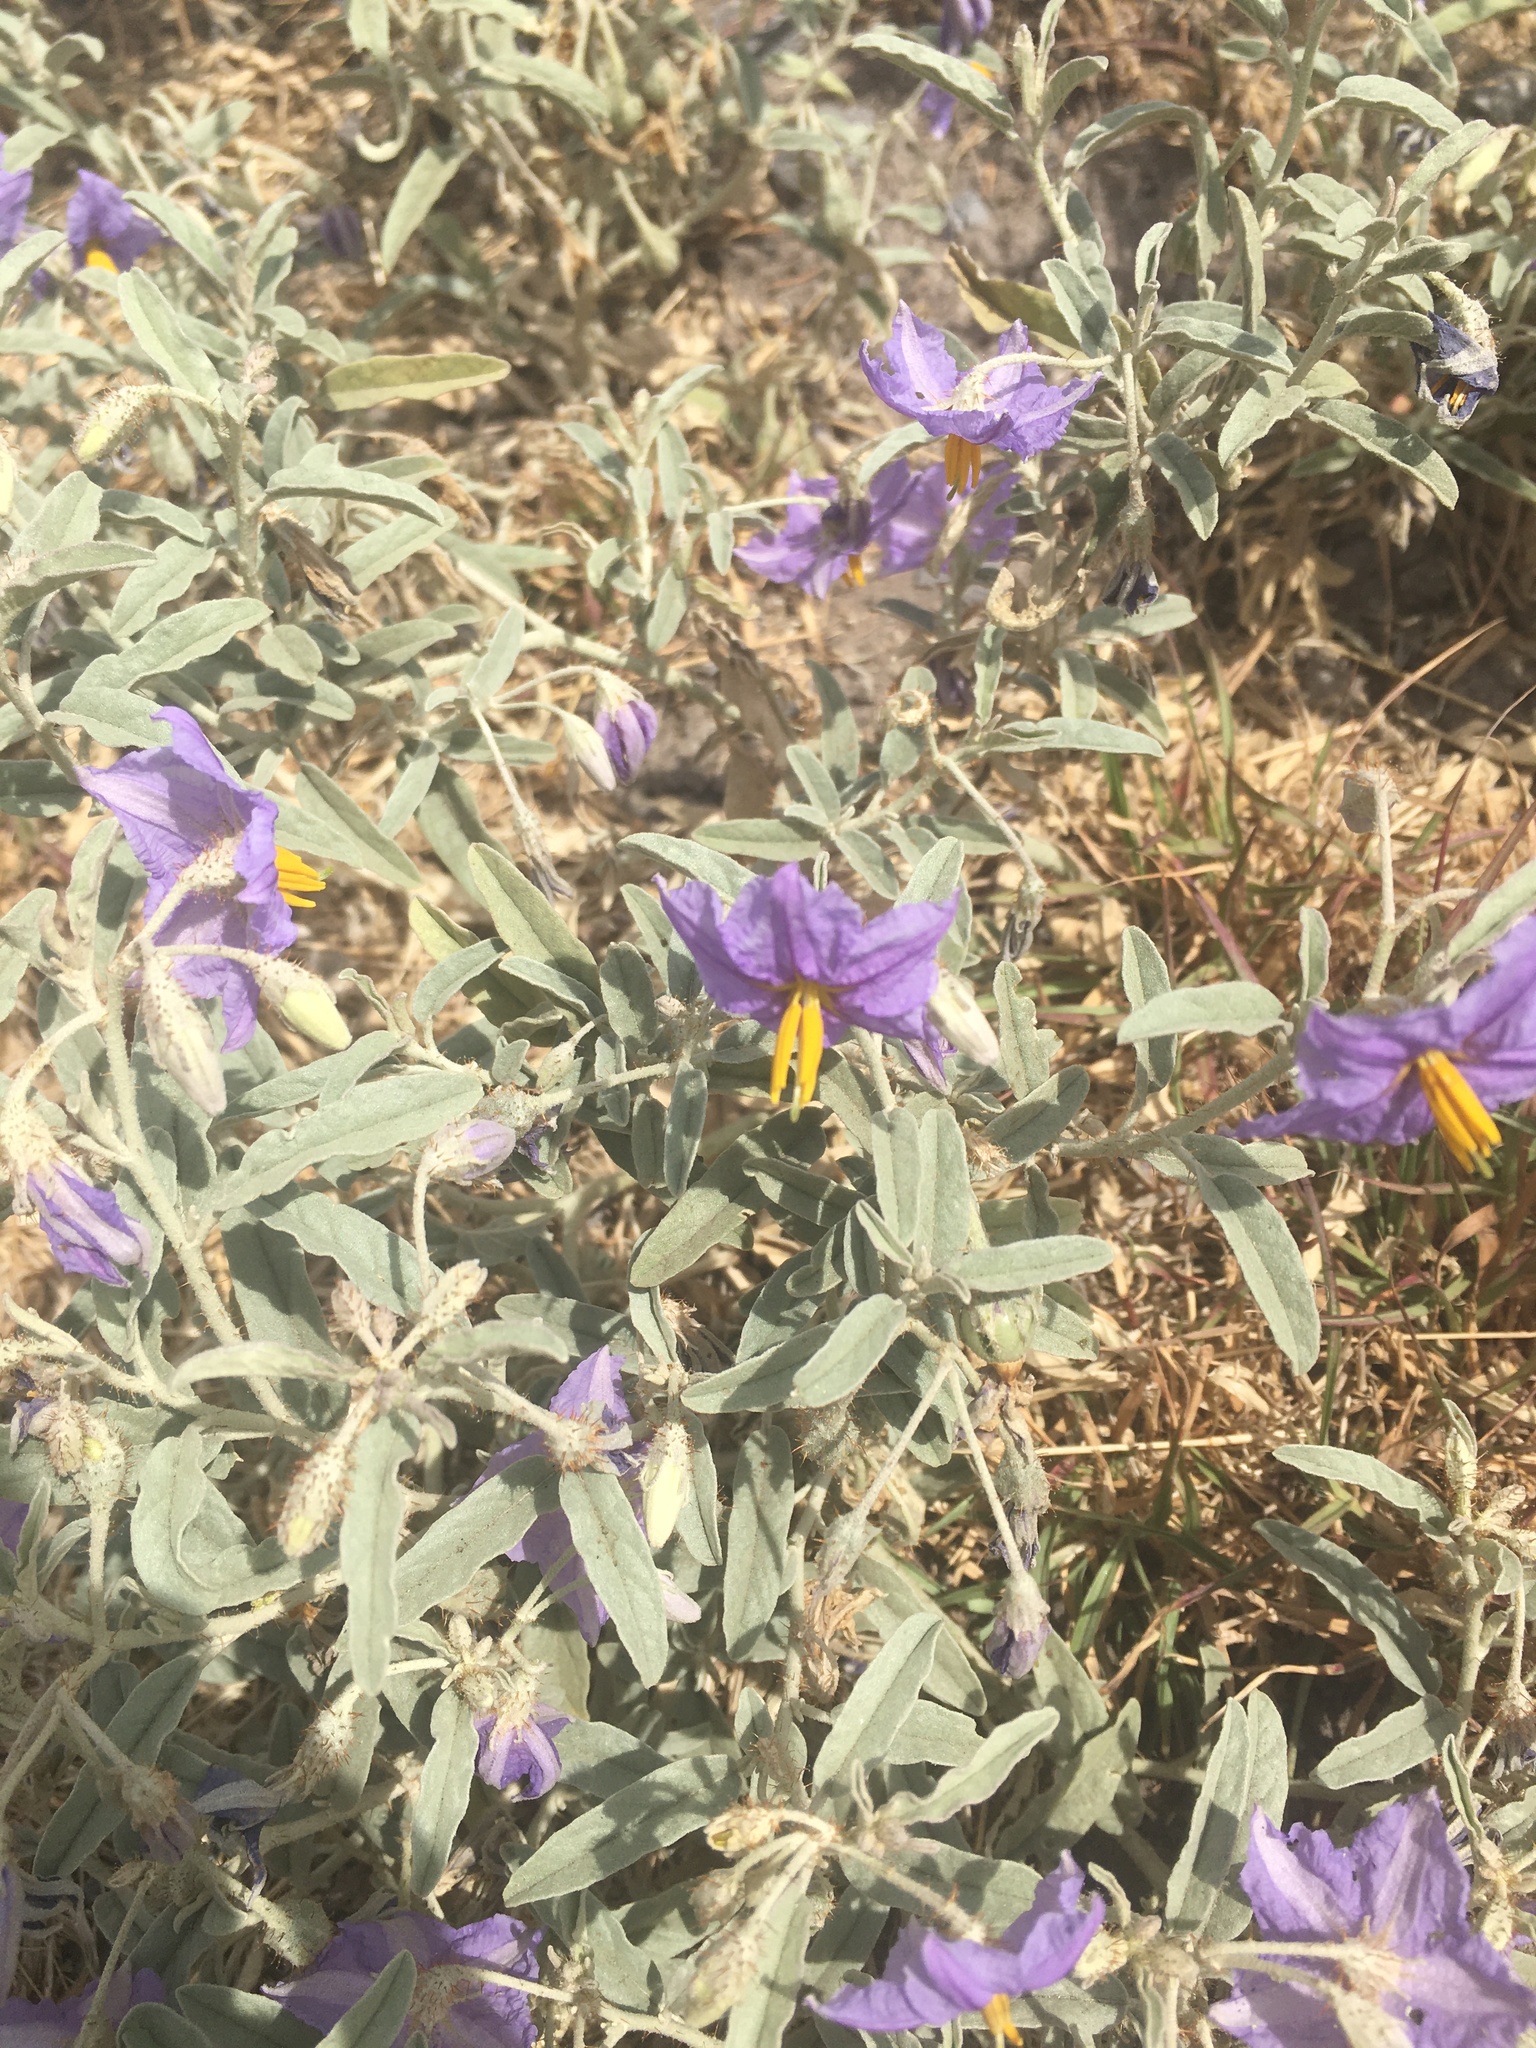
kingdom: Plantae
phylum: Tracheophyta
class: Magnoliopsida
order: Solanales
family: Solanaceae
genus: Solanum
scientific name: Solanum elaeagnifolium
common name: Silverleaf nightshade
